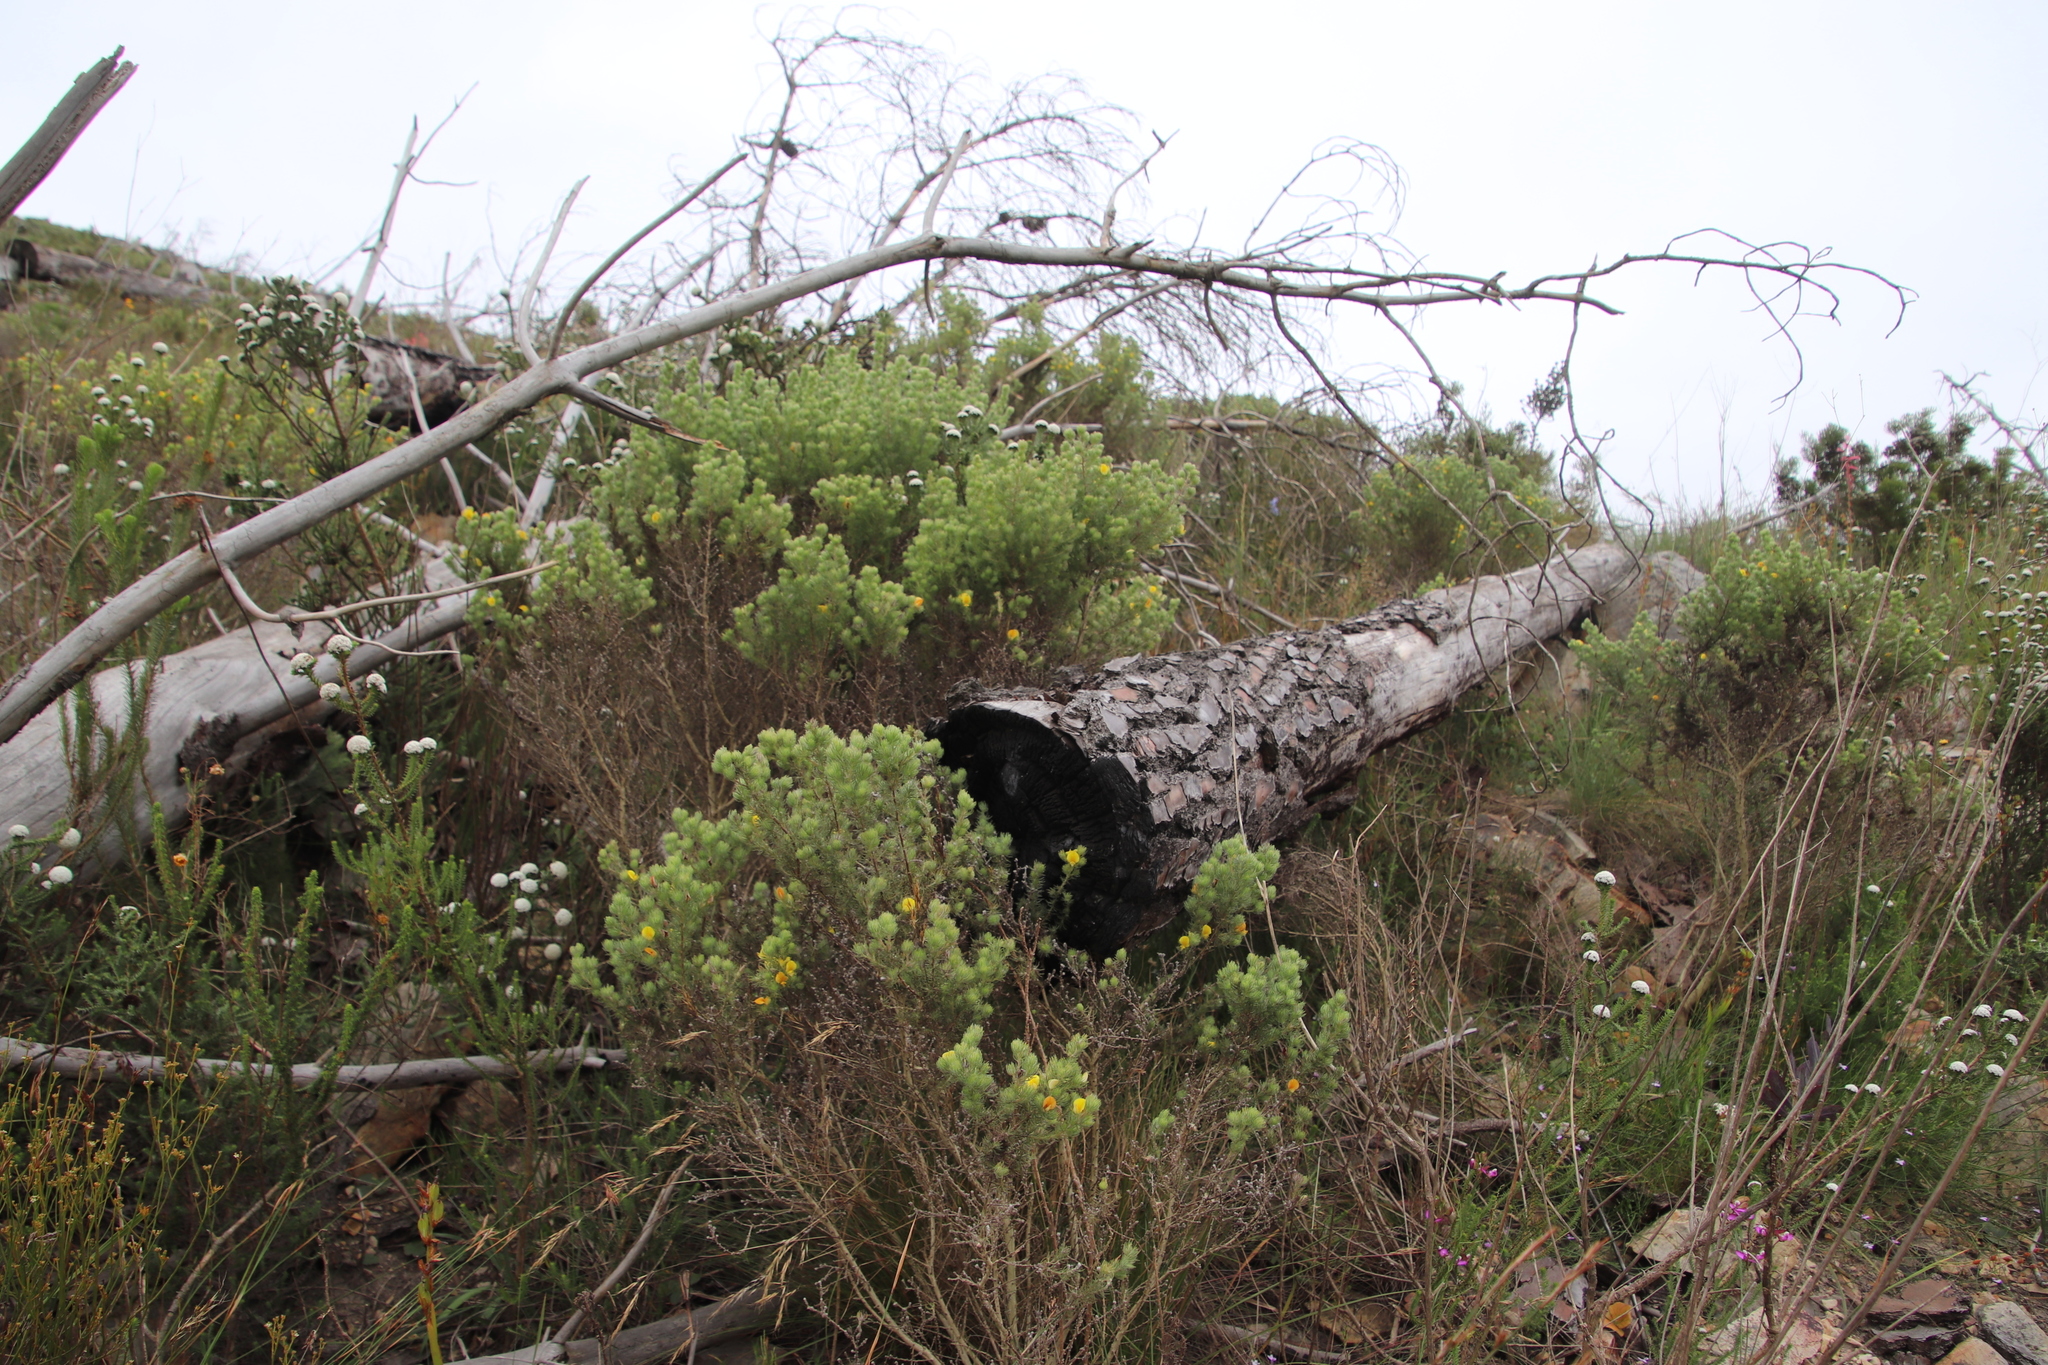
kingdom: Plantae
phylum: Tracheophyta
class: Magnoliopsida
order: Fabales
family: Fabaceae
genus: Aspalathus
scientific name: Aspalathus ciliaris
